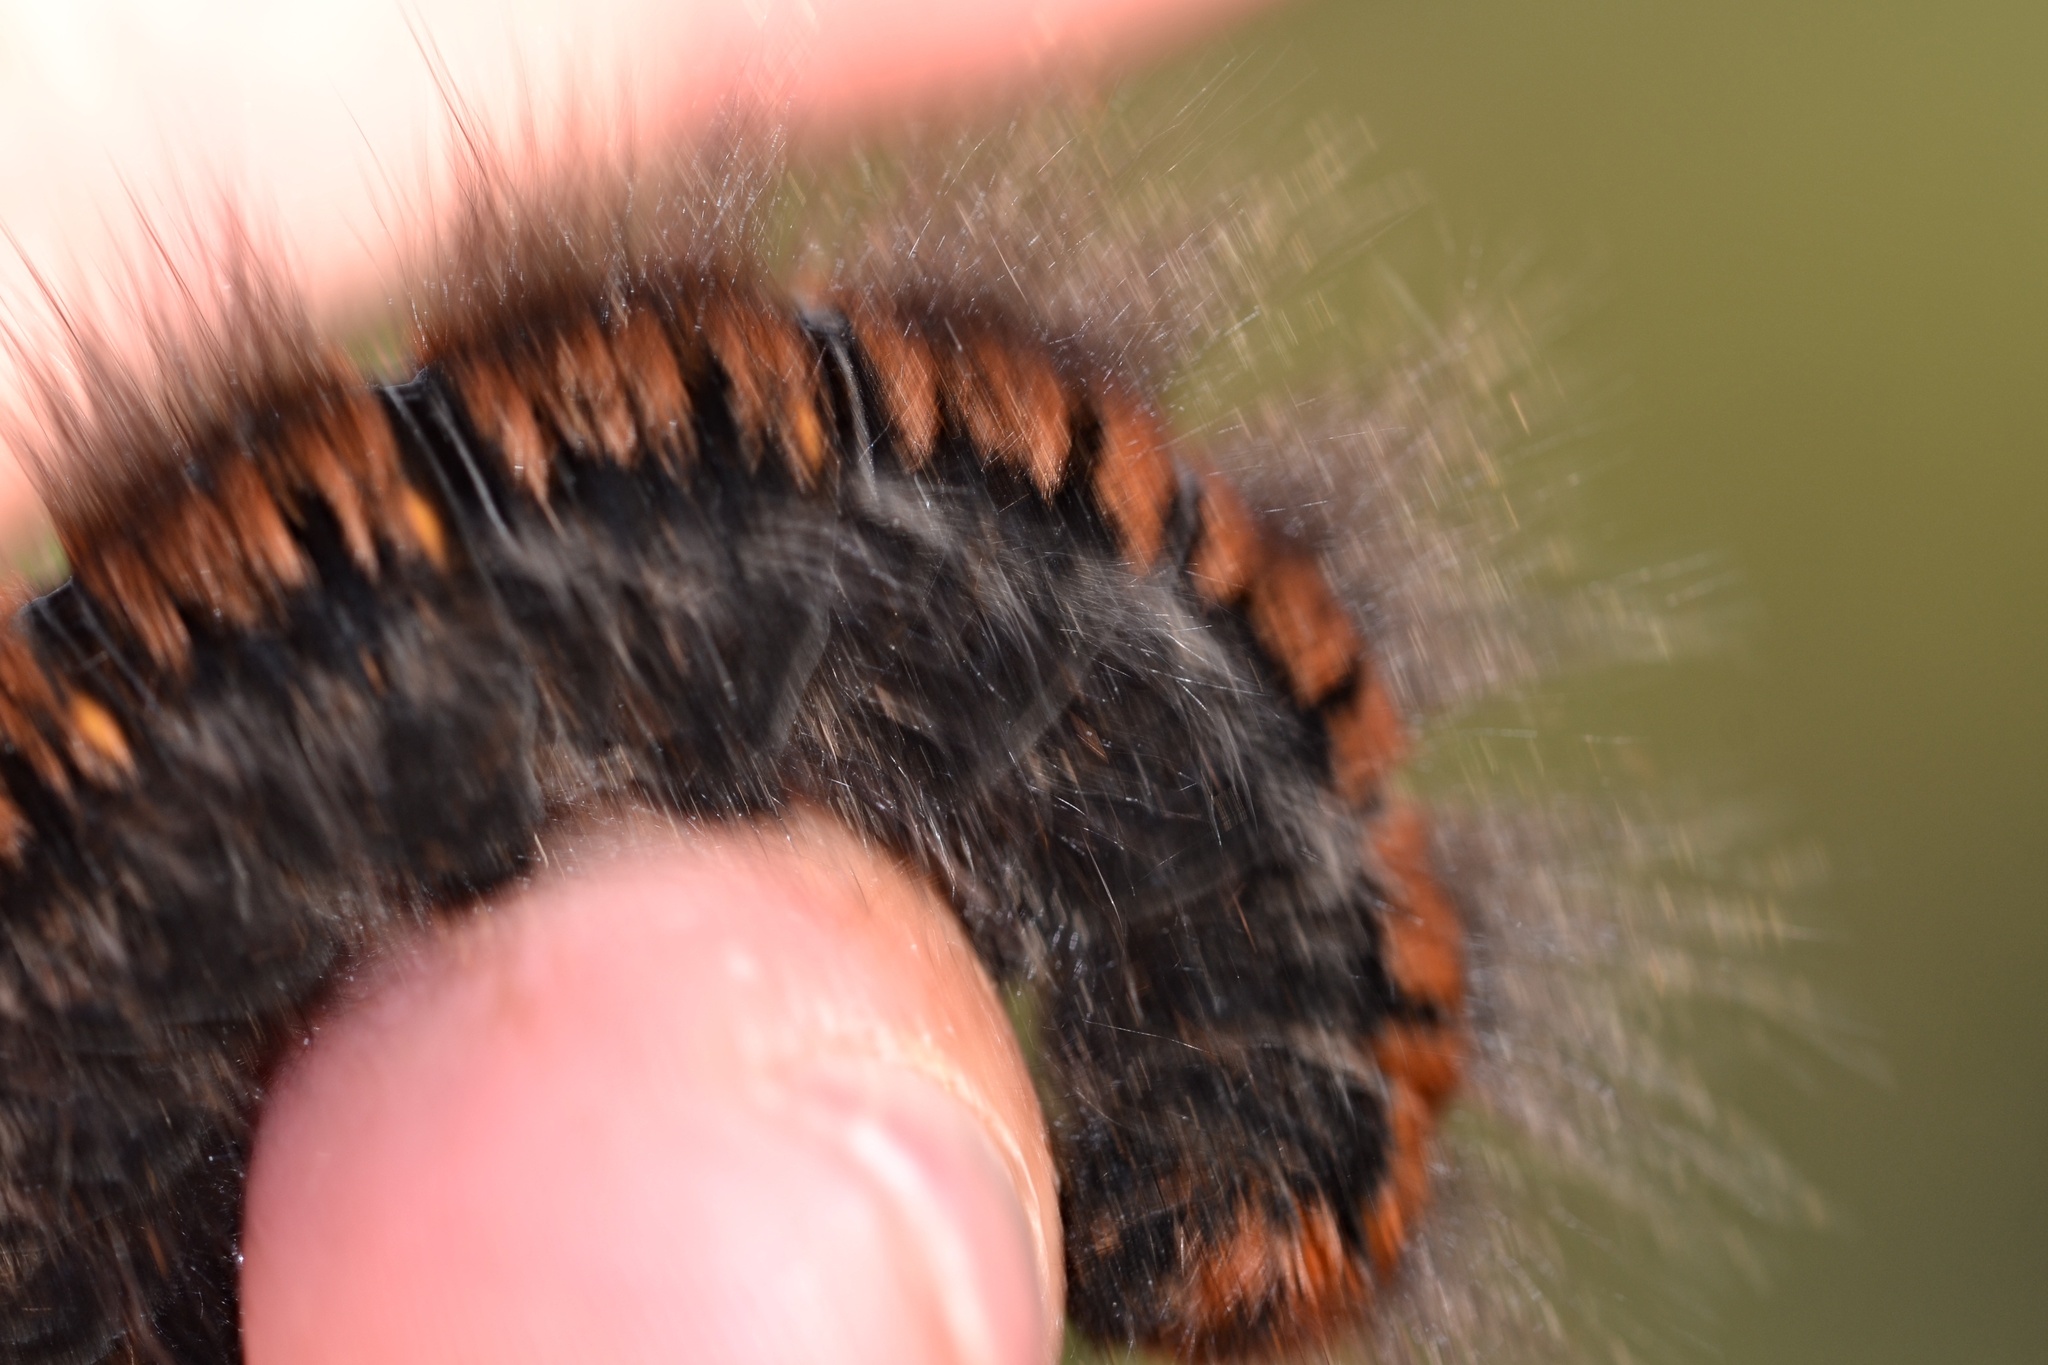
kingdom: Animalia
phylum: Arthropoda
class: Insecta
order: Lepidoptera
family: Lasiocampidae
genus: Macrothylacia
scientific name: Macrothylacia rubi
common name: Fox moth
